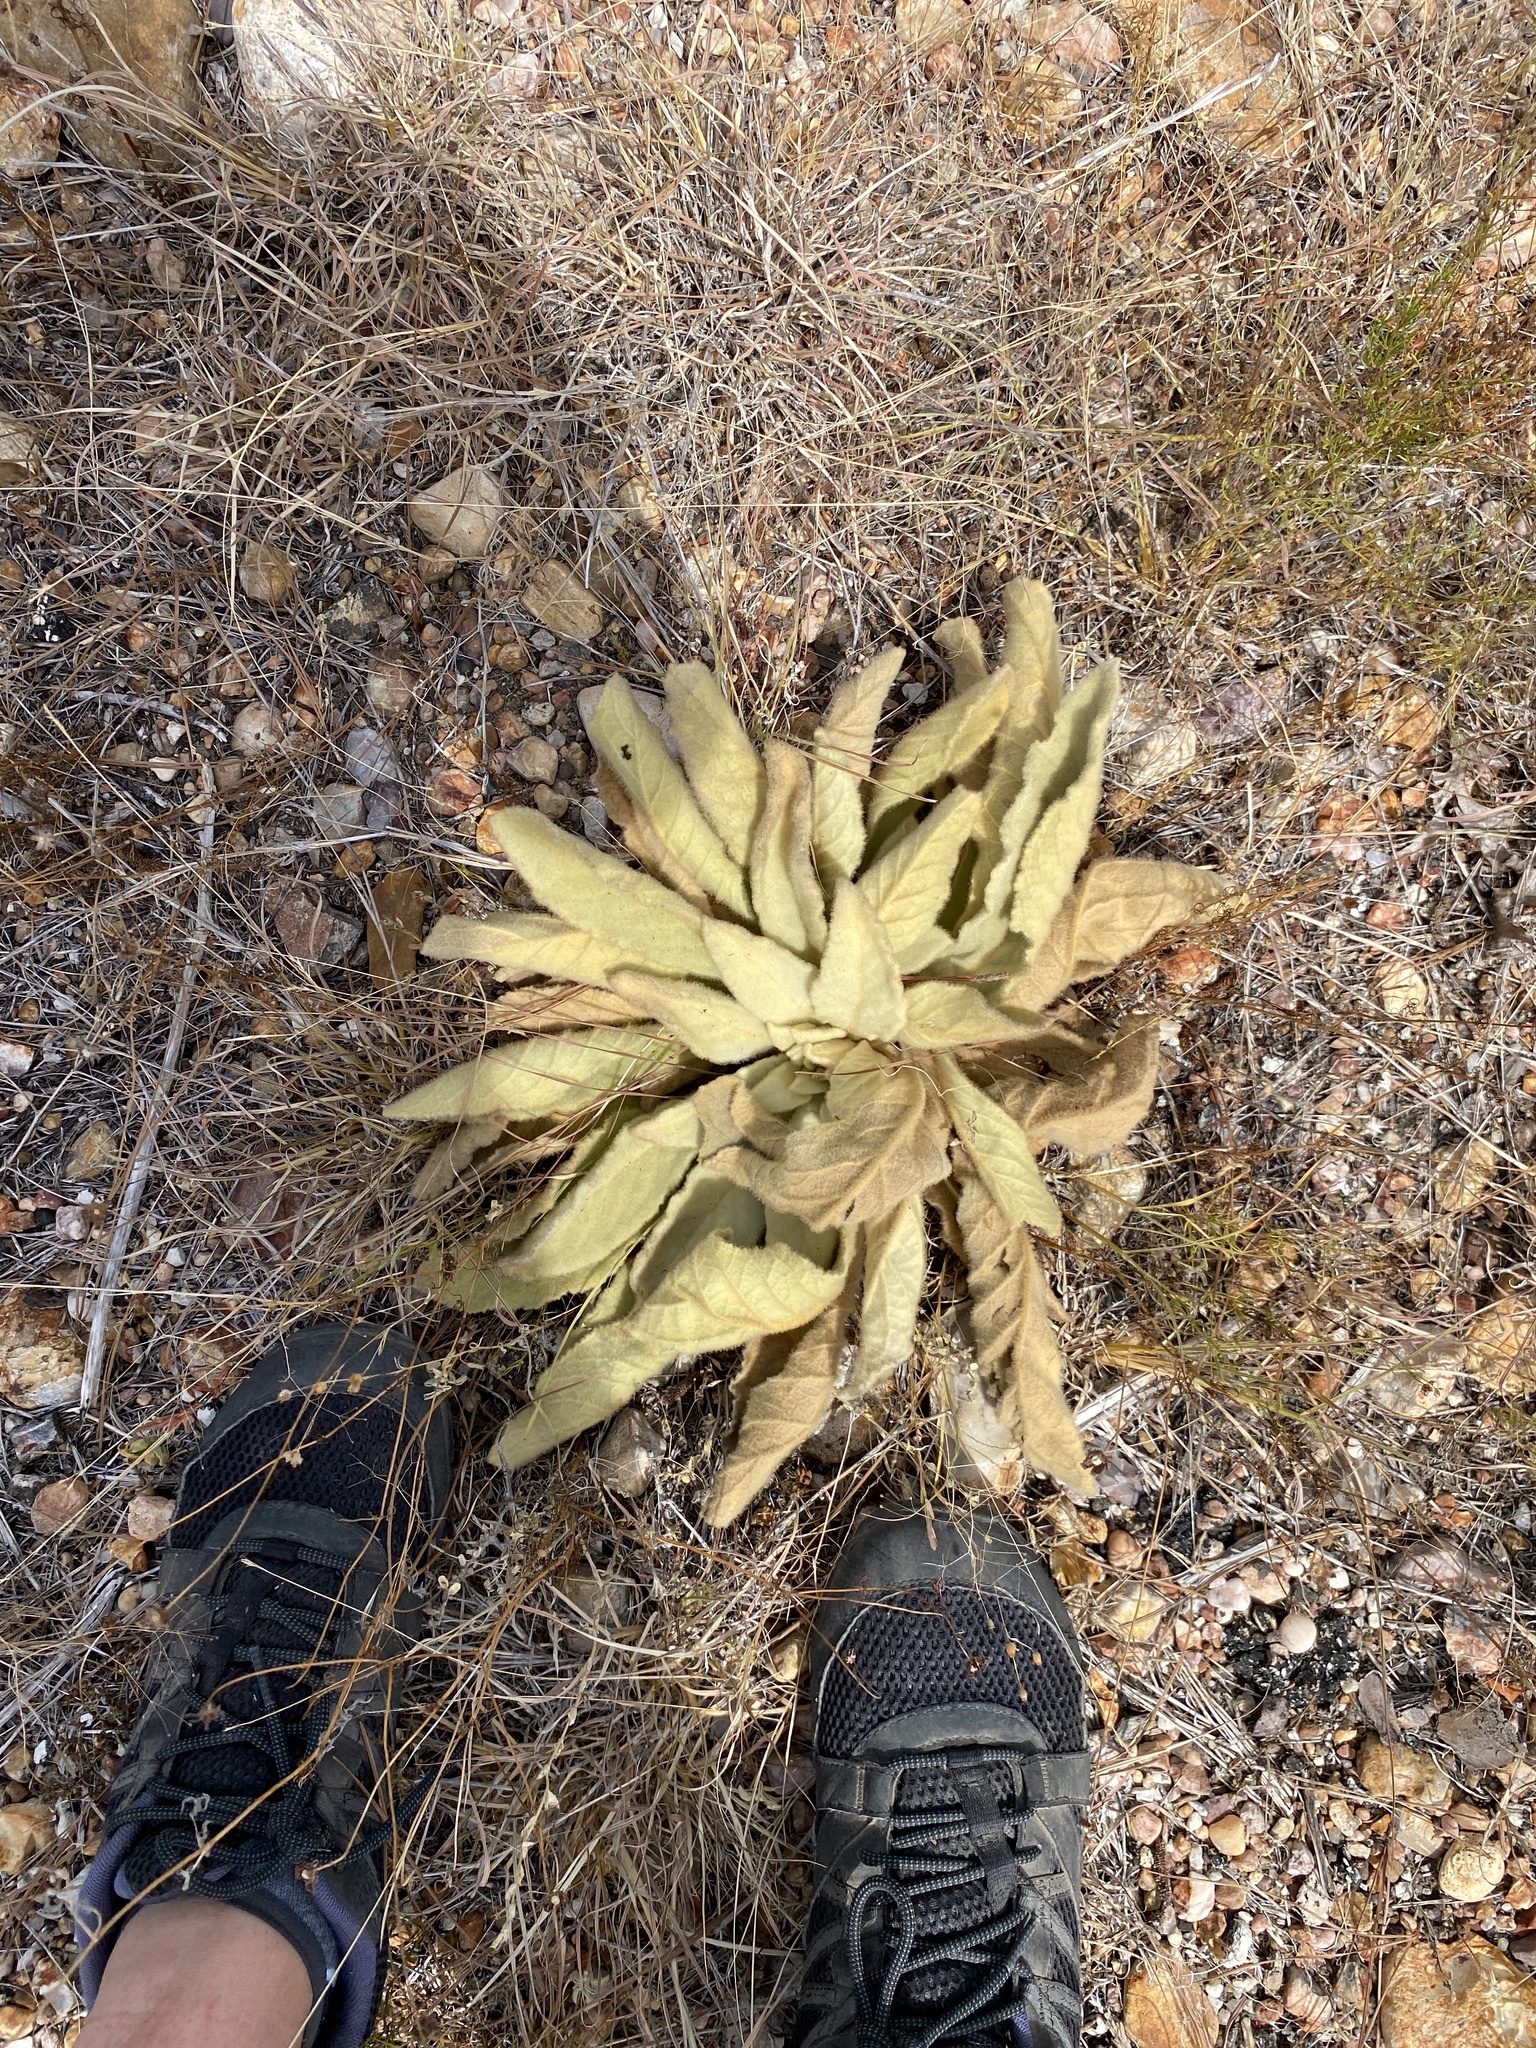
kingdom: Plantae
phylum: Tracheophyta
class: Magnoliopsida
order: Lamiales
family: Scrophulariaceae
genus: Verbascum
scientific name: Verbascum thapsus
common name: Common mullein
